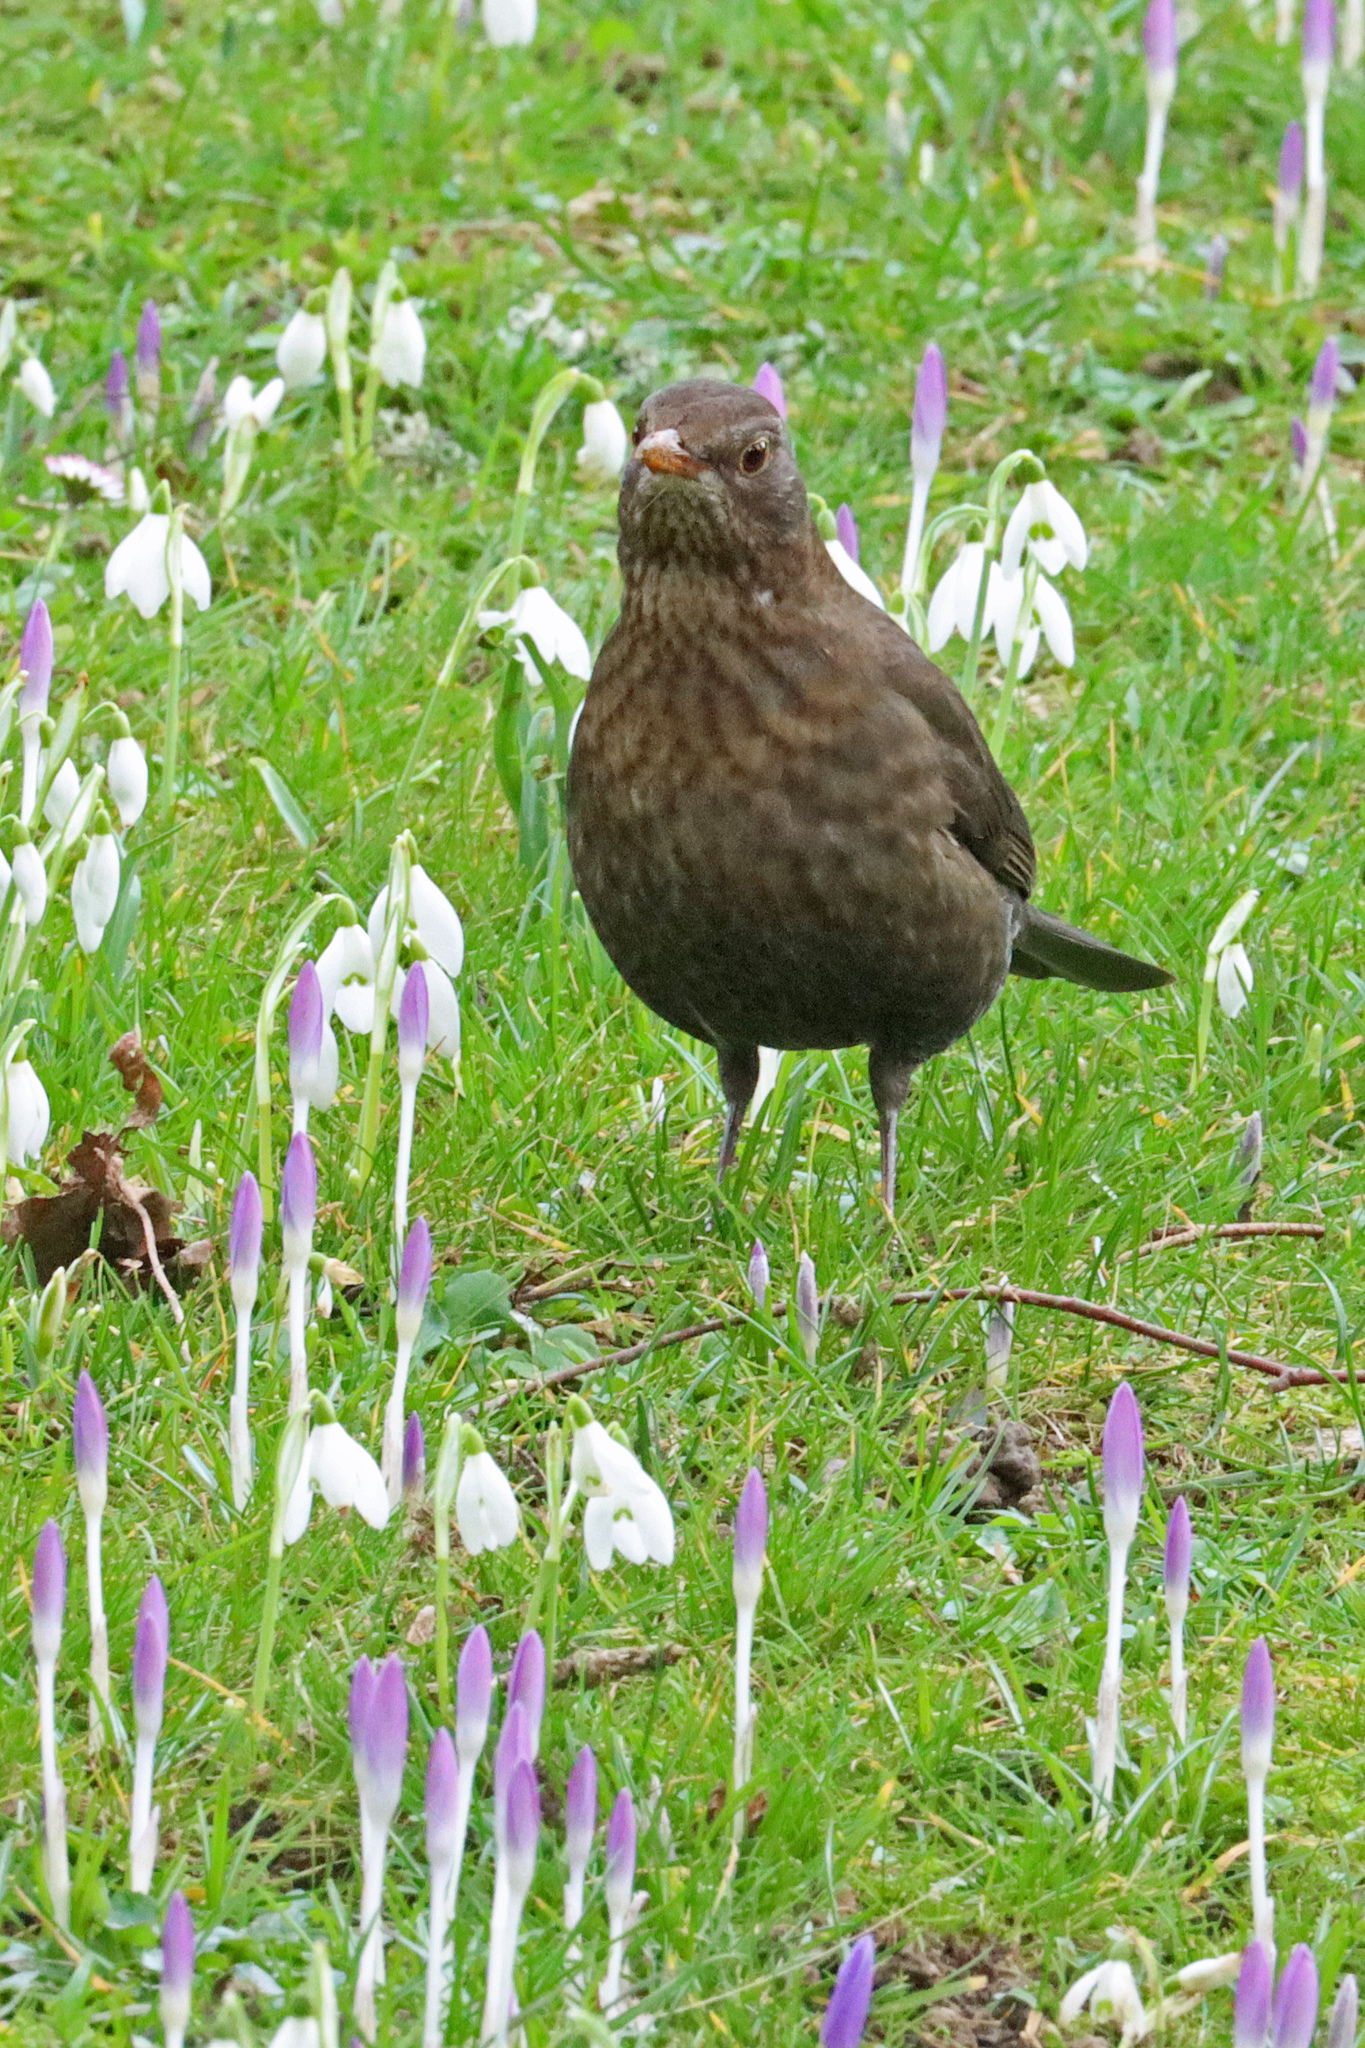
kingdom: Animalia
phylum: Chordata
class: Aves
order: Passeriformes
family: Turdidae
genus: Turdus
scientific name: Turdus merula
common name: Common blackbird
